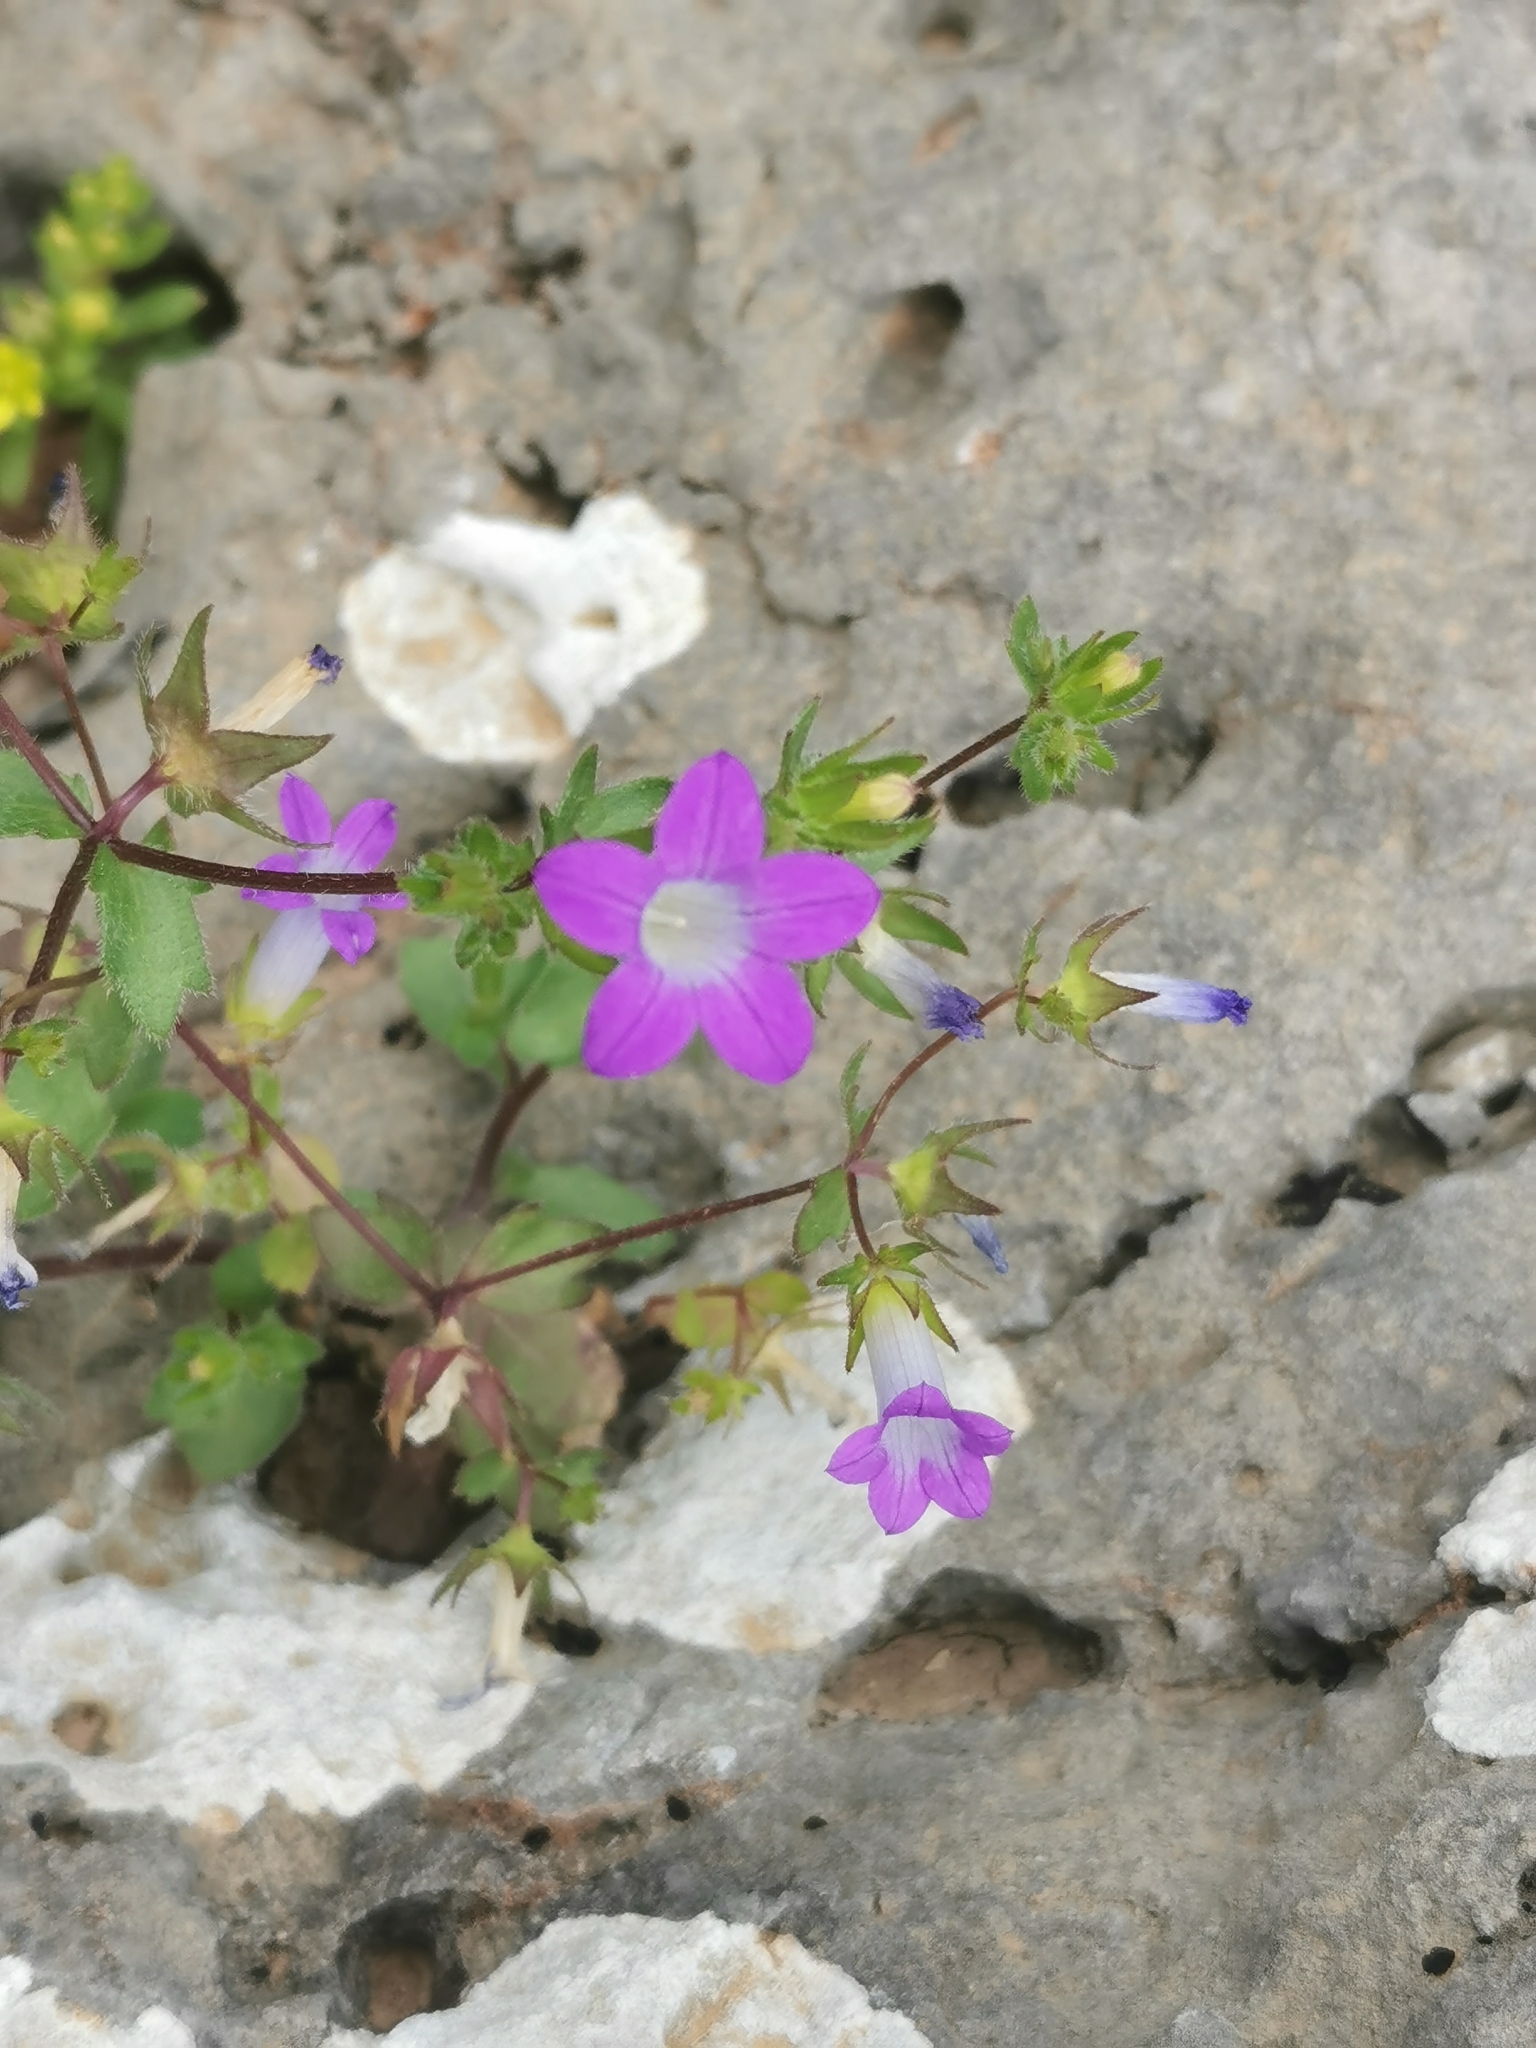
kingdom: Plantae
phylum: Tracheophyta
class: Magnoliopsida
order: Asterales
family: Campanulaceae
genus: Campanula
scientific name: Campanula simulans
